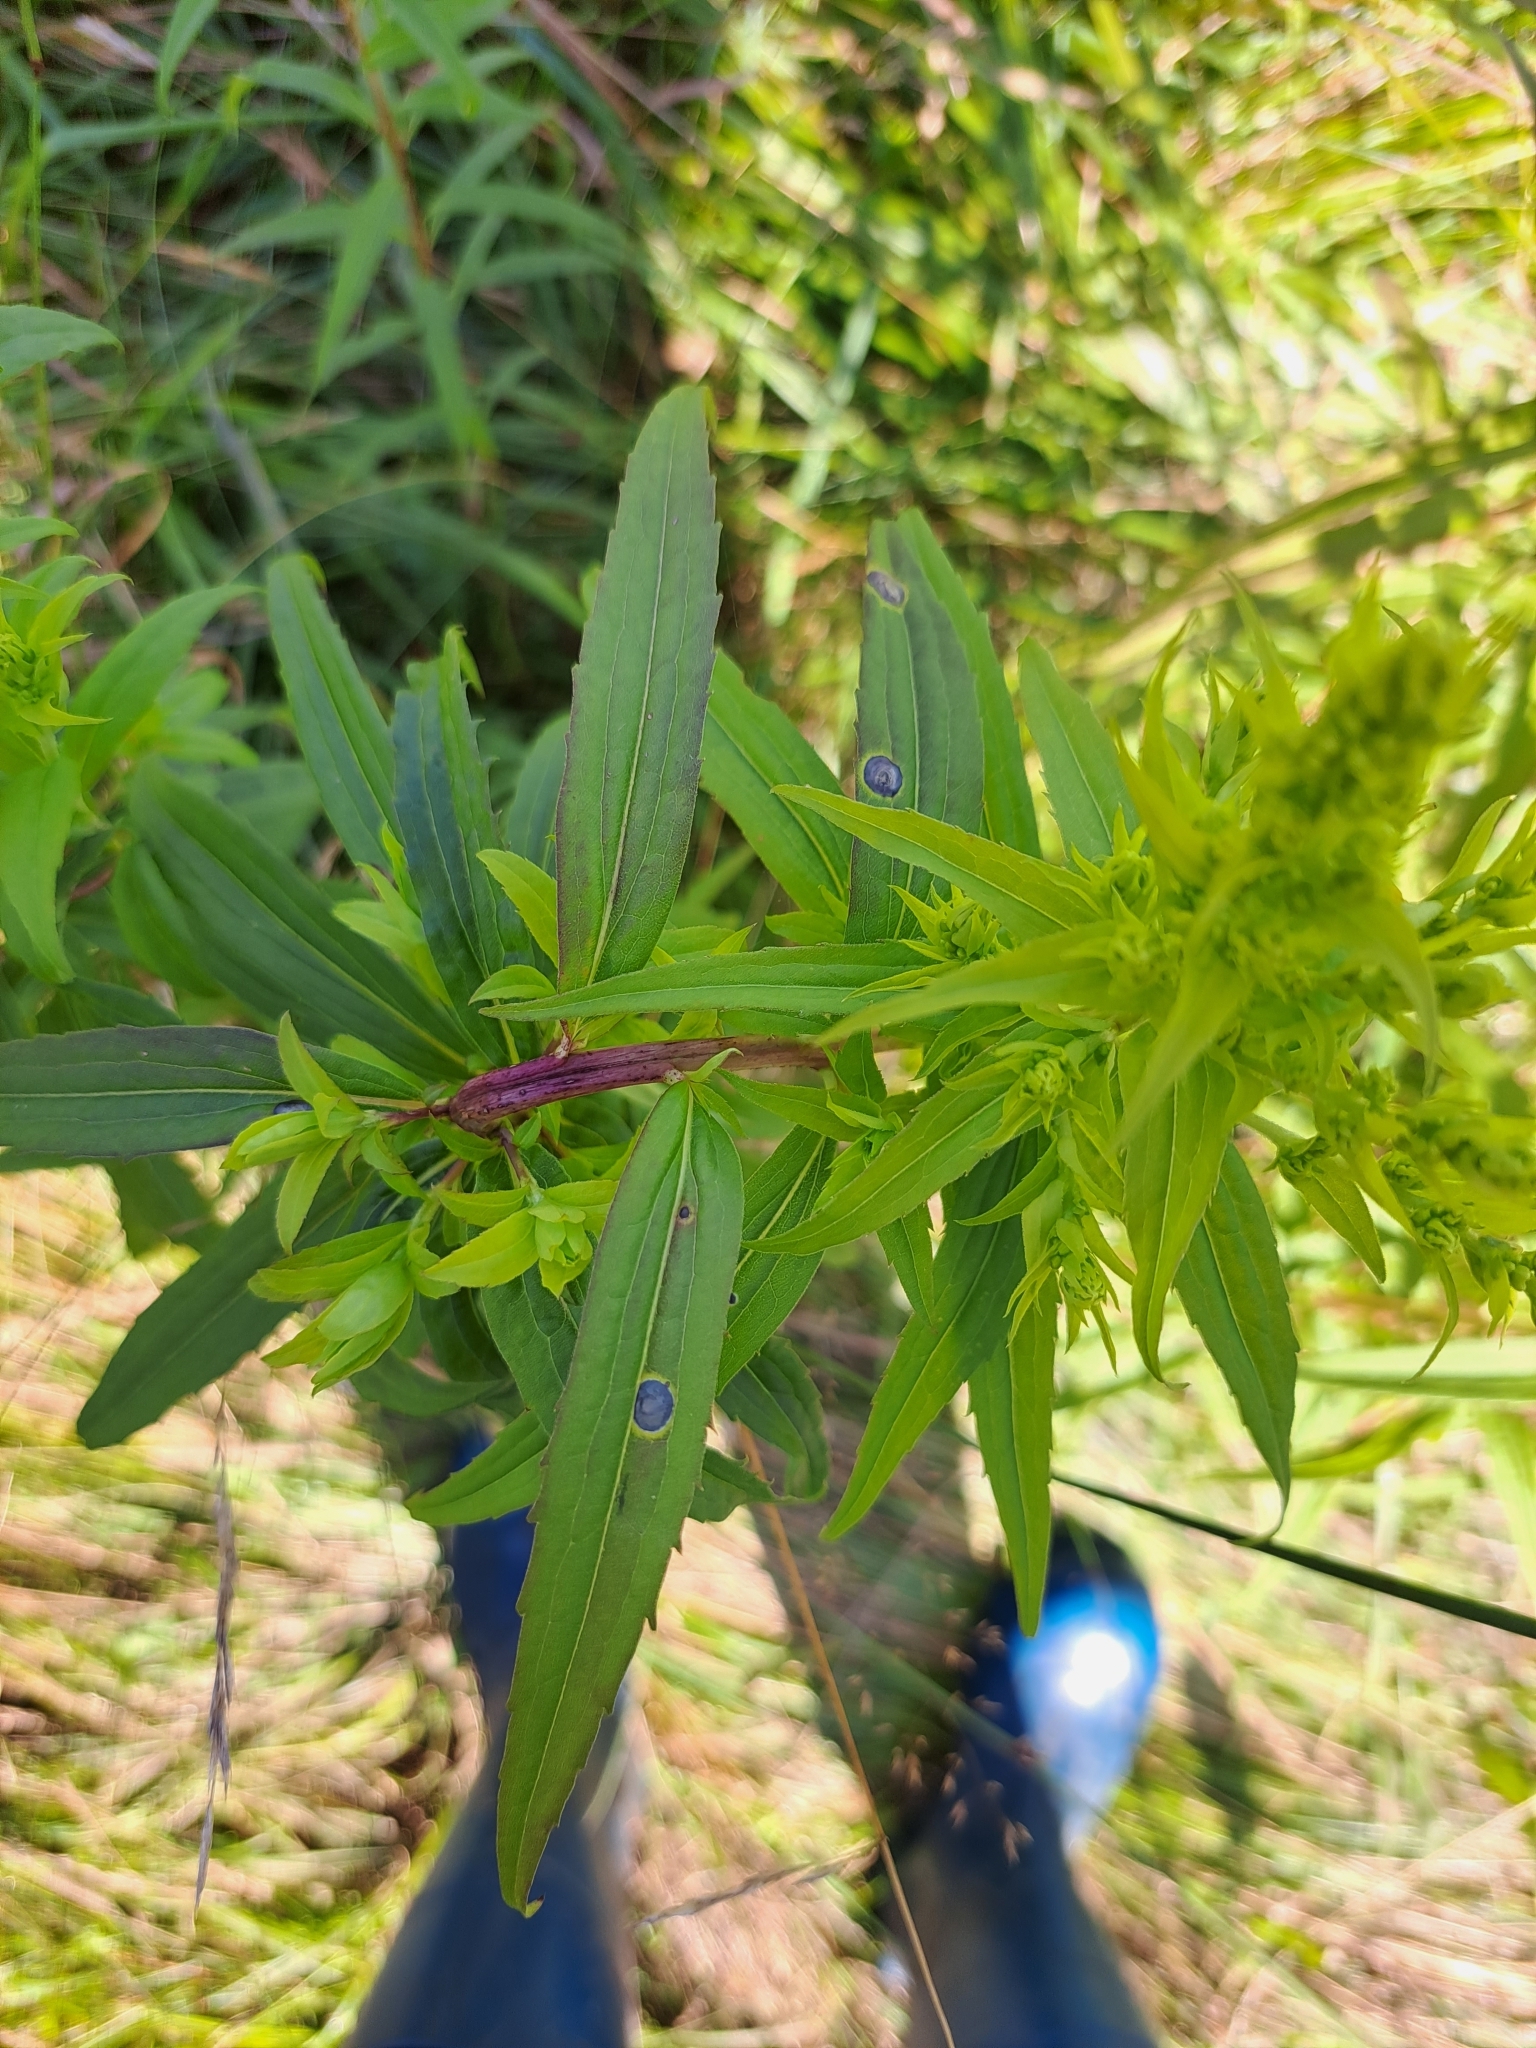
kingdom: Animalia
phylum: Arthropoda
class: Insecta
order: Diptera
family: Cecidomyiidae
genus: Asteromyia
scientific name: Asteromyia carbonifera
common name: Carbonifera goldenrod gall midge
